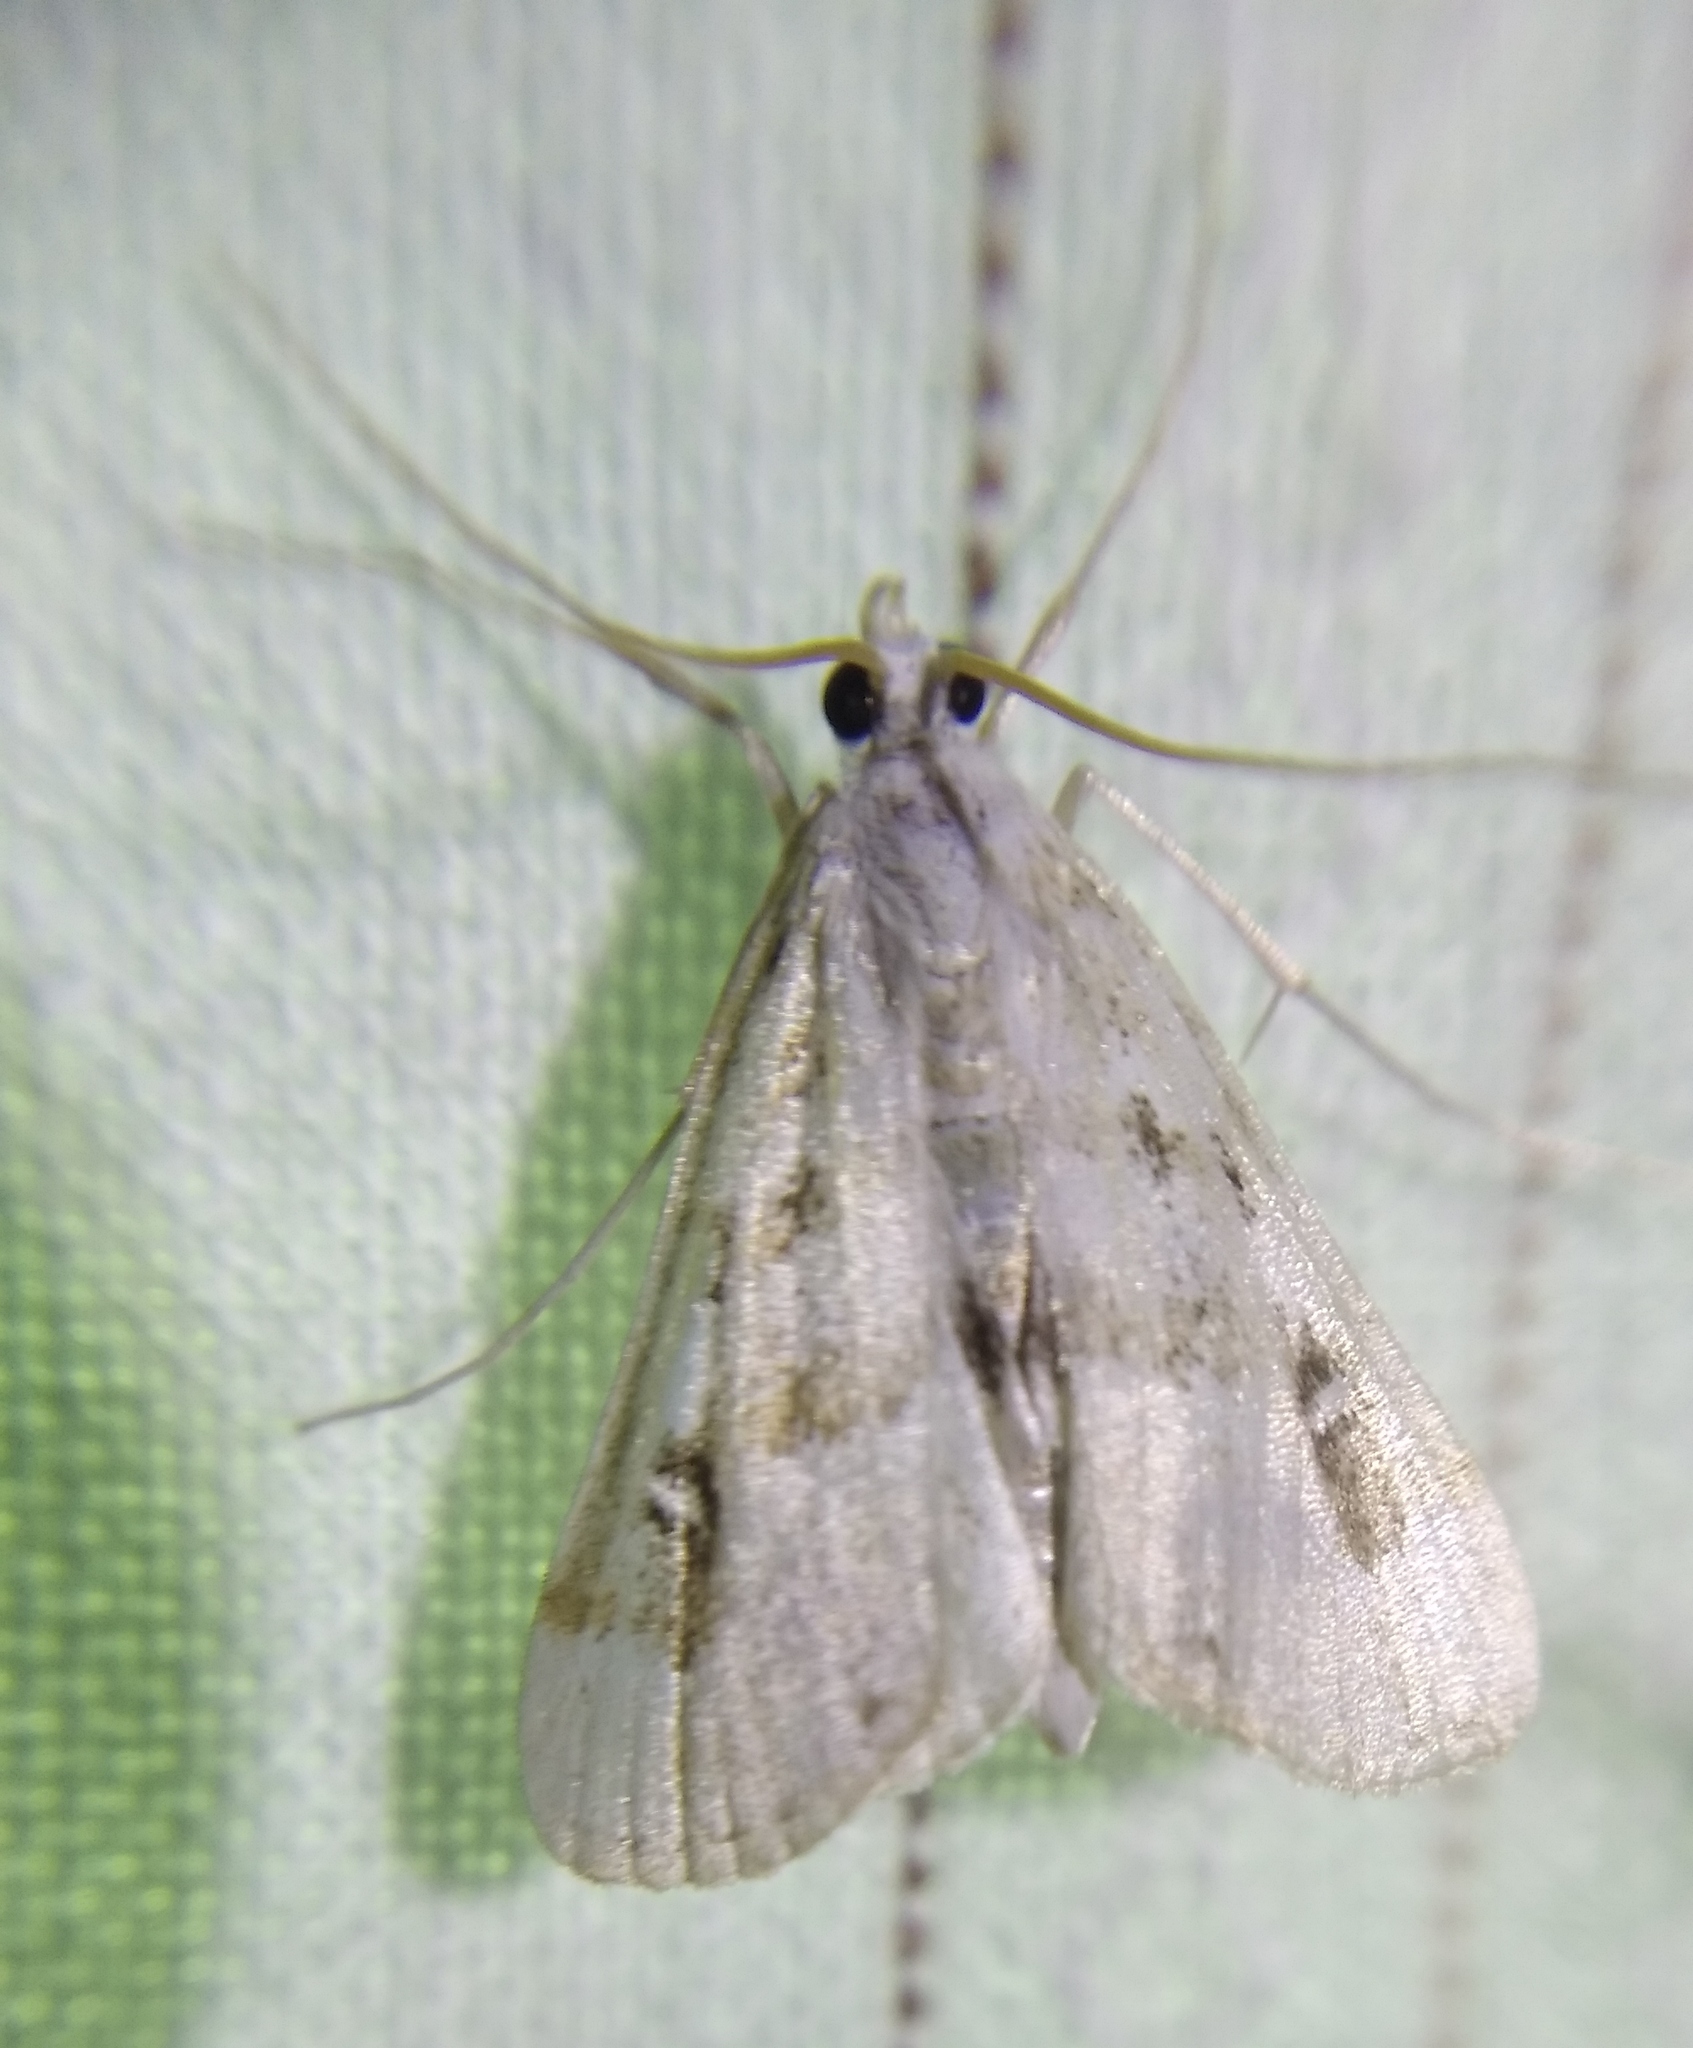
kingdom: Animalia
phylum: Arthropoda
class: Insecta
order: Lepidoptera
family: Crambidae
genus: Parapoynx
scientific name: Parapoynx stratiotata
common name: Ringed china-mark
